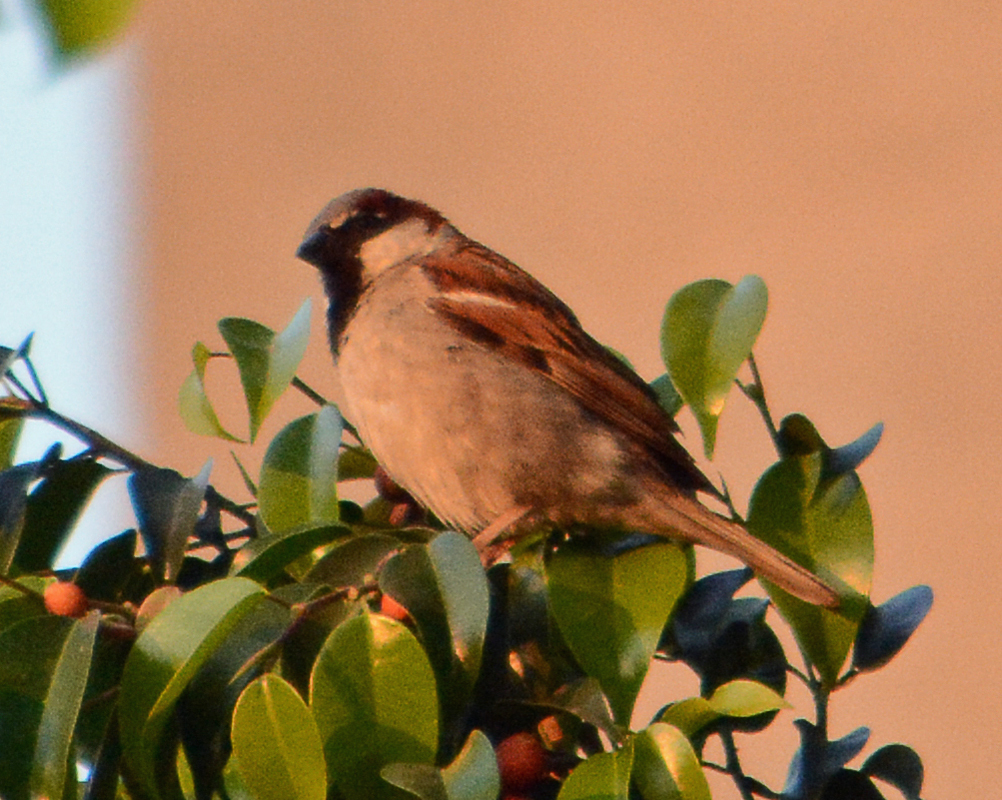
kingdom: Animalia
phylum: Chordata
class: Aves
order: Passeriformes
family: Passeridae
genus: Passer
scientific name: Passer domesticus
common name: House sparrow
